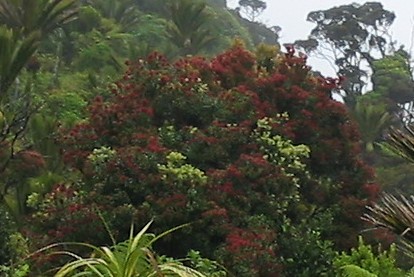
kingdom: Plantae
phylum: Tracheophyta
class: Magnoliopsida
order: Myrtales
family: Myrtaceae
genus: Metrosideros
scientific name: Metrosideros umbellata
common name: Southern rata
